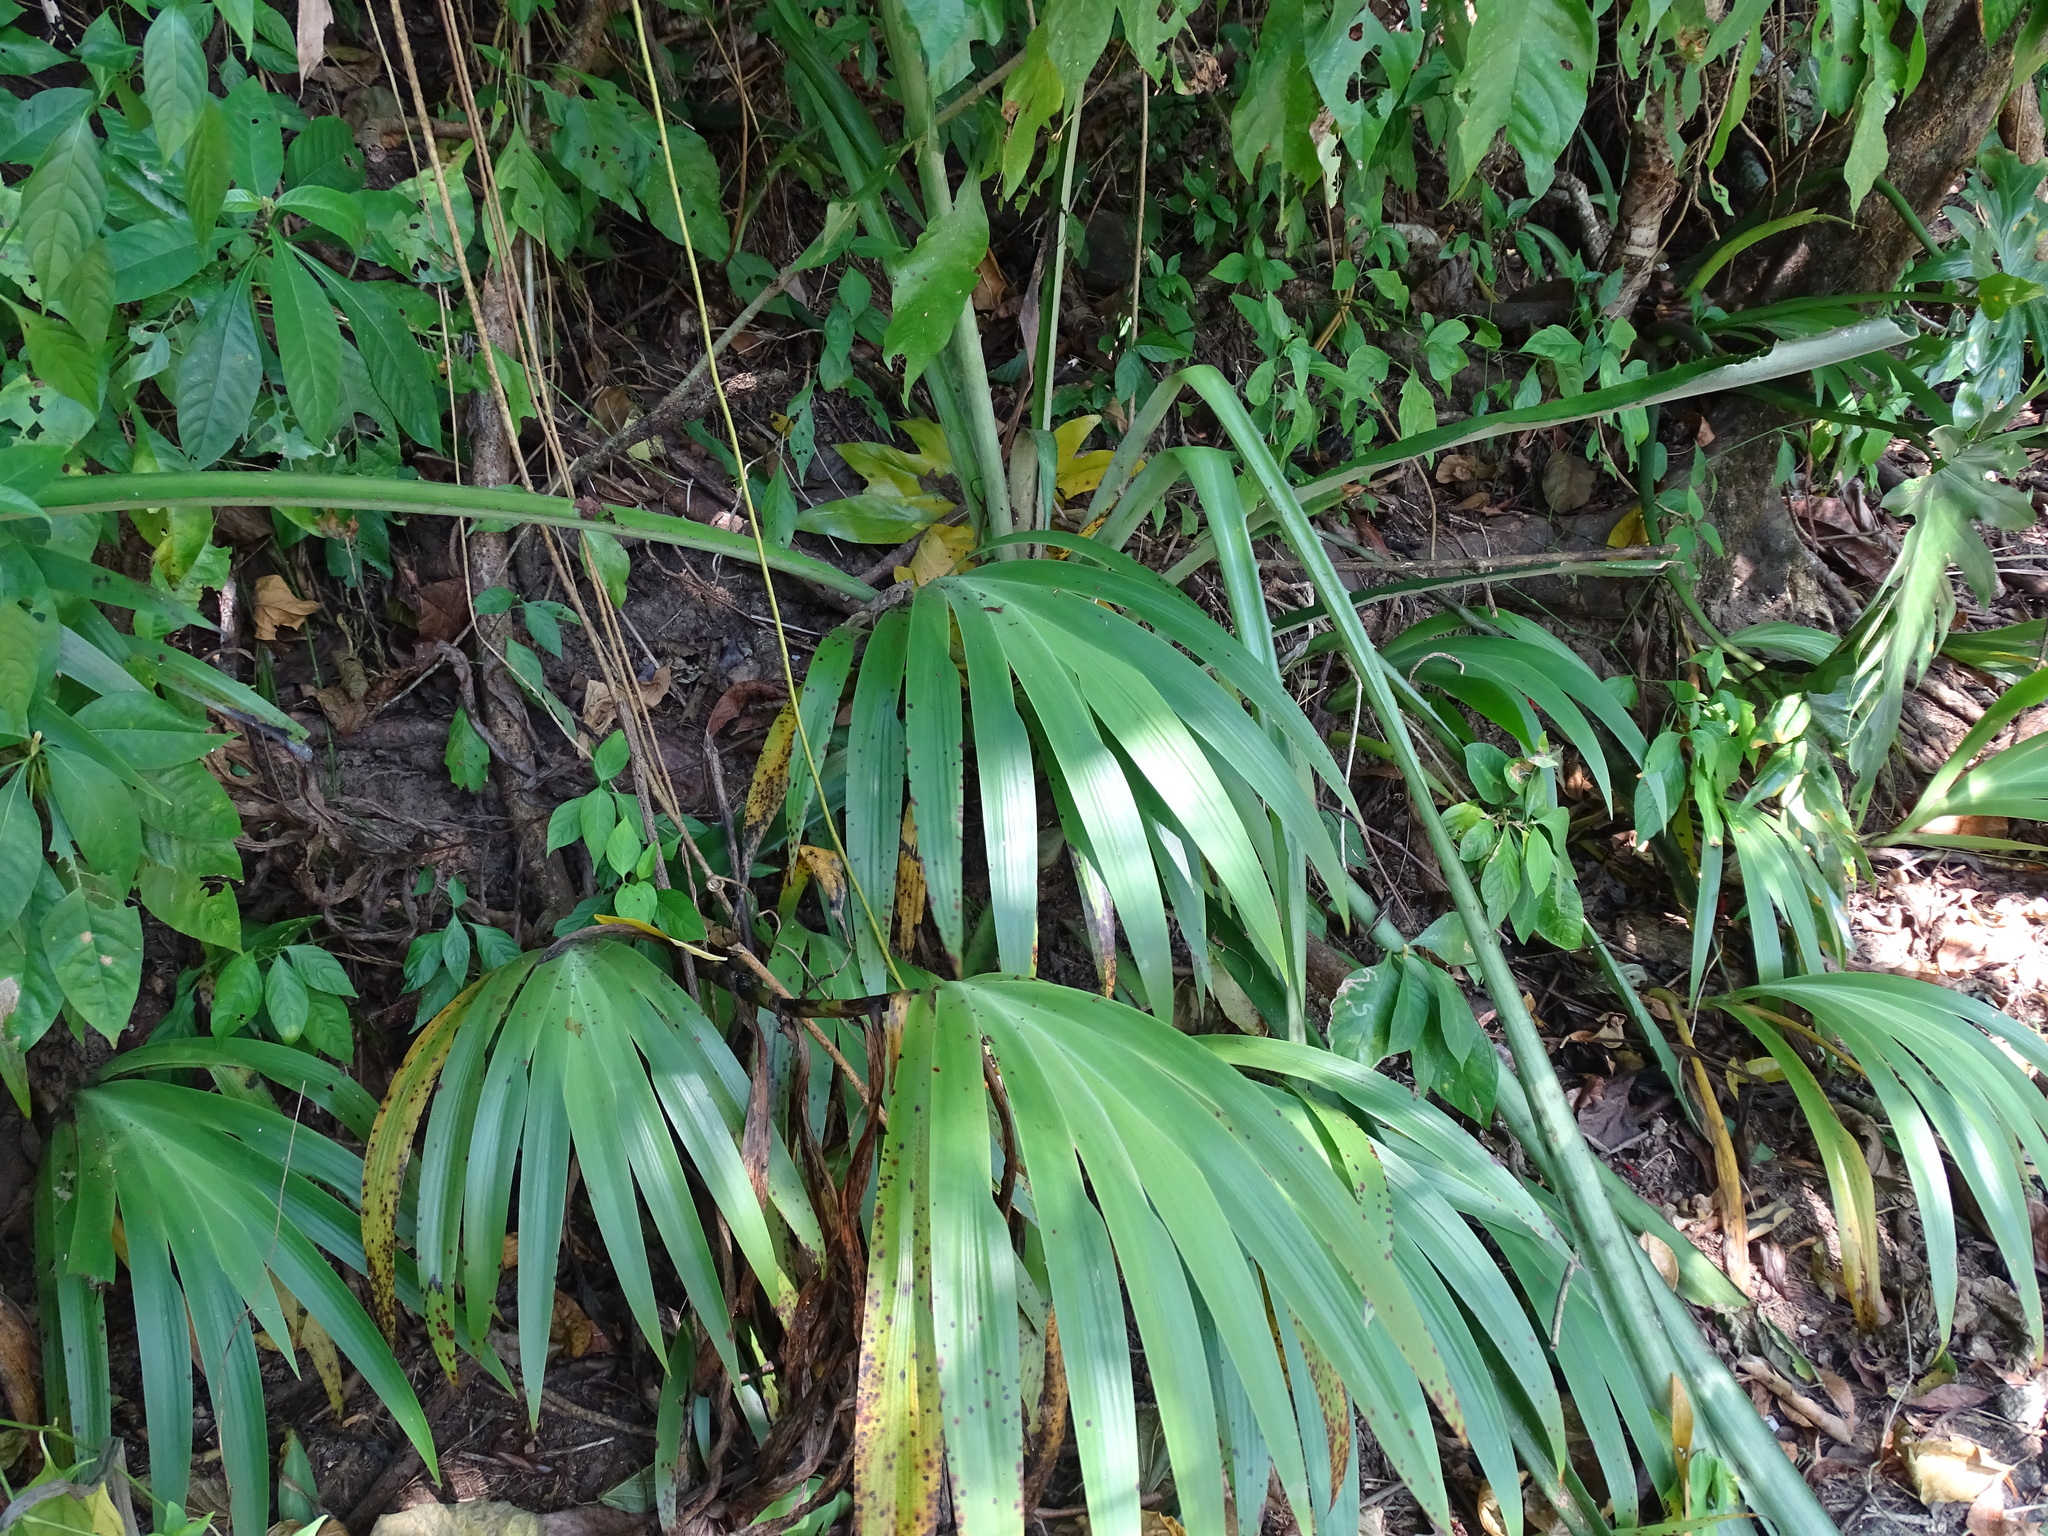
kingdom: Plantae
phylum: Tracheophyta
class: Liliopsida
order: Commelinales
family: Haemodoraceae
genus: Xiphidium
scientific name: Xiphidium caeruleum
